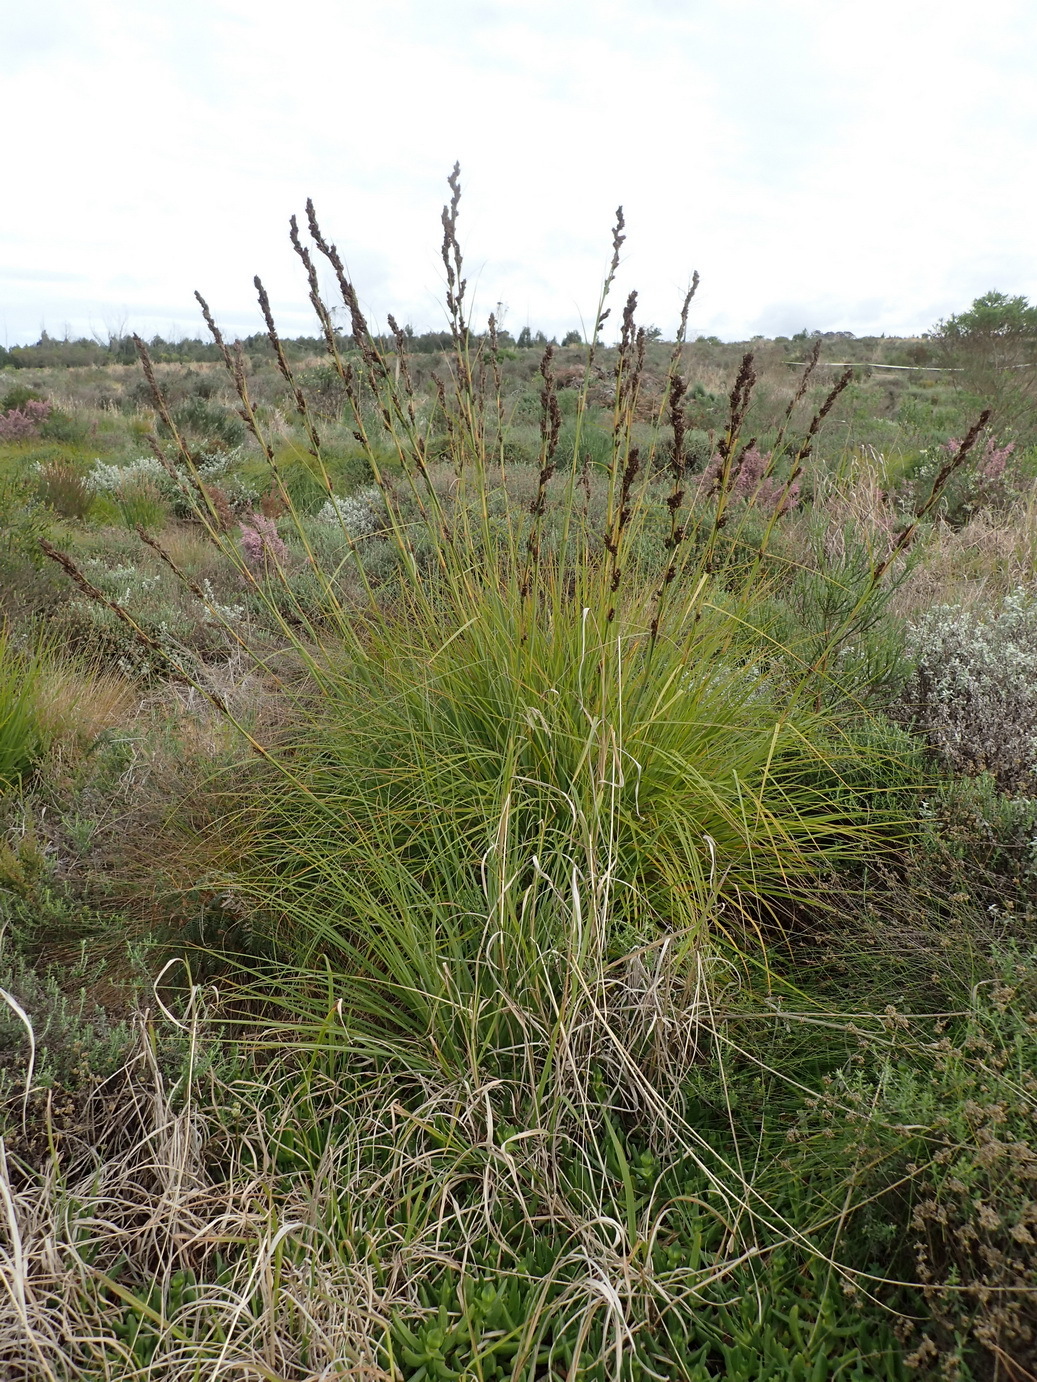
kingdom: Plantae
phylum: Tracheophyta
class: Liliopsida
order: Poales
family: Cyperaceae
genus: Tetraria
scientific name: Tetraria involucrata
